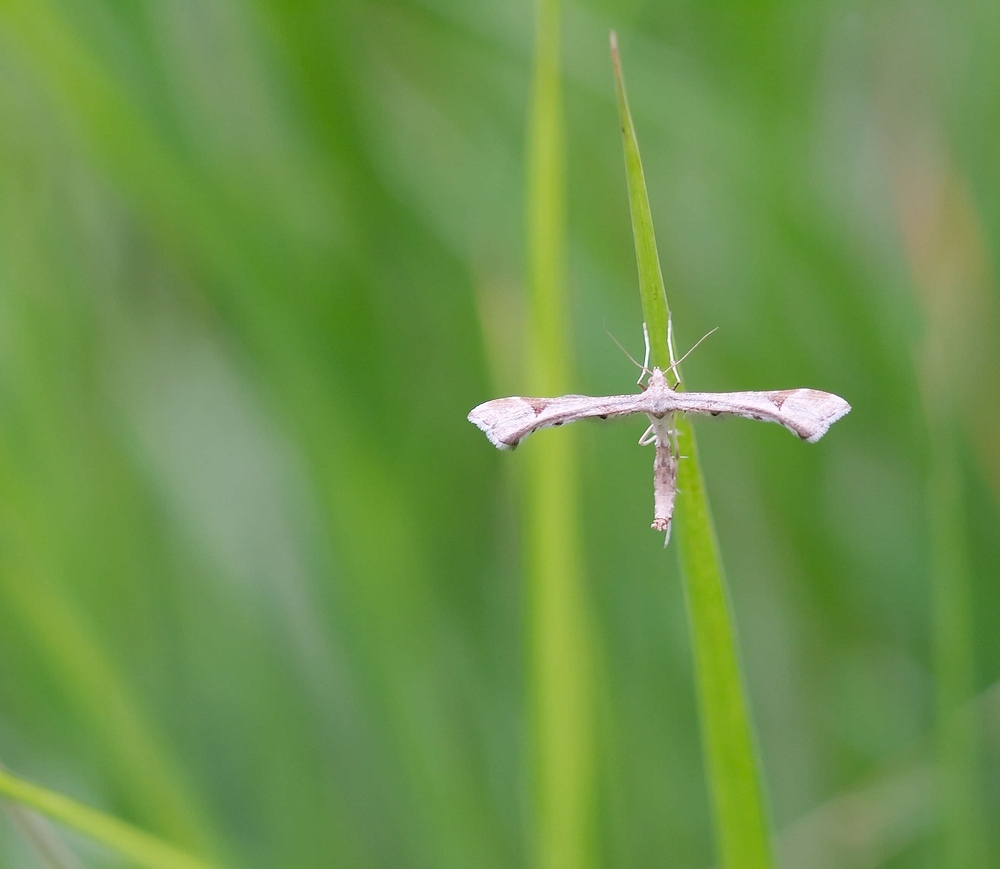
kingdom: Animalia
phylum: Arthropoda
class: Insecta
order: Lepidoptera
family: Pterophoridae
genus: Platyptilia
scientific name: Platyptilia gonodactyla
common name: Triangle plume
